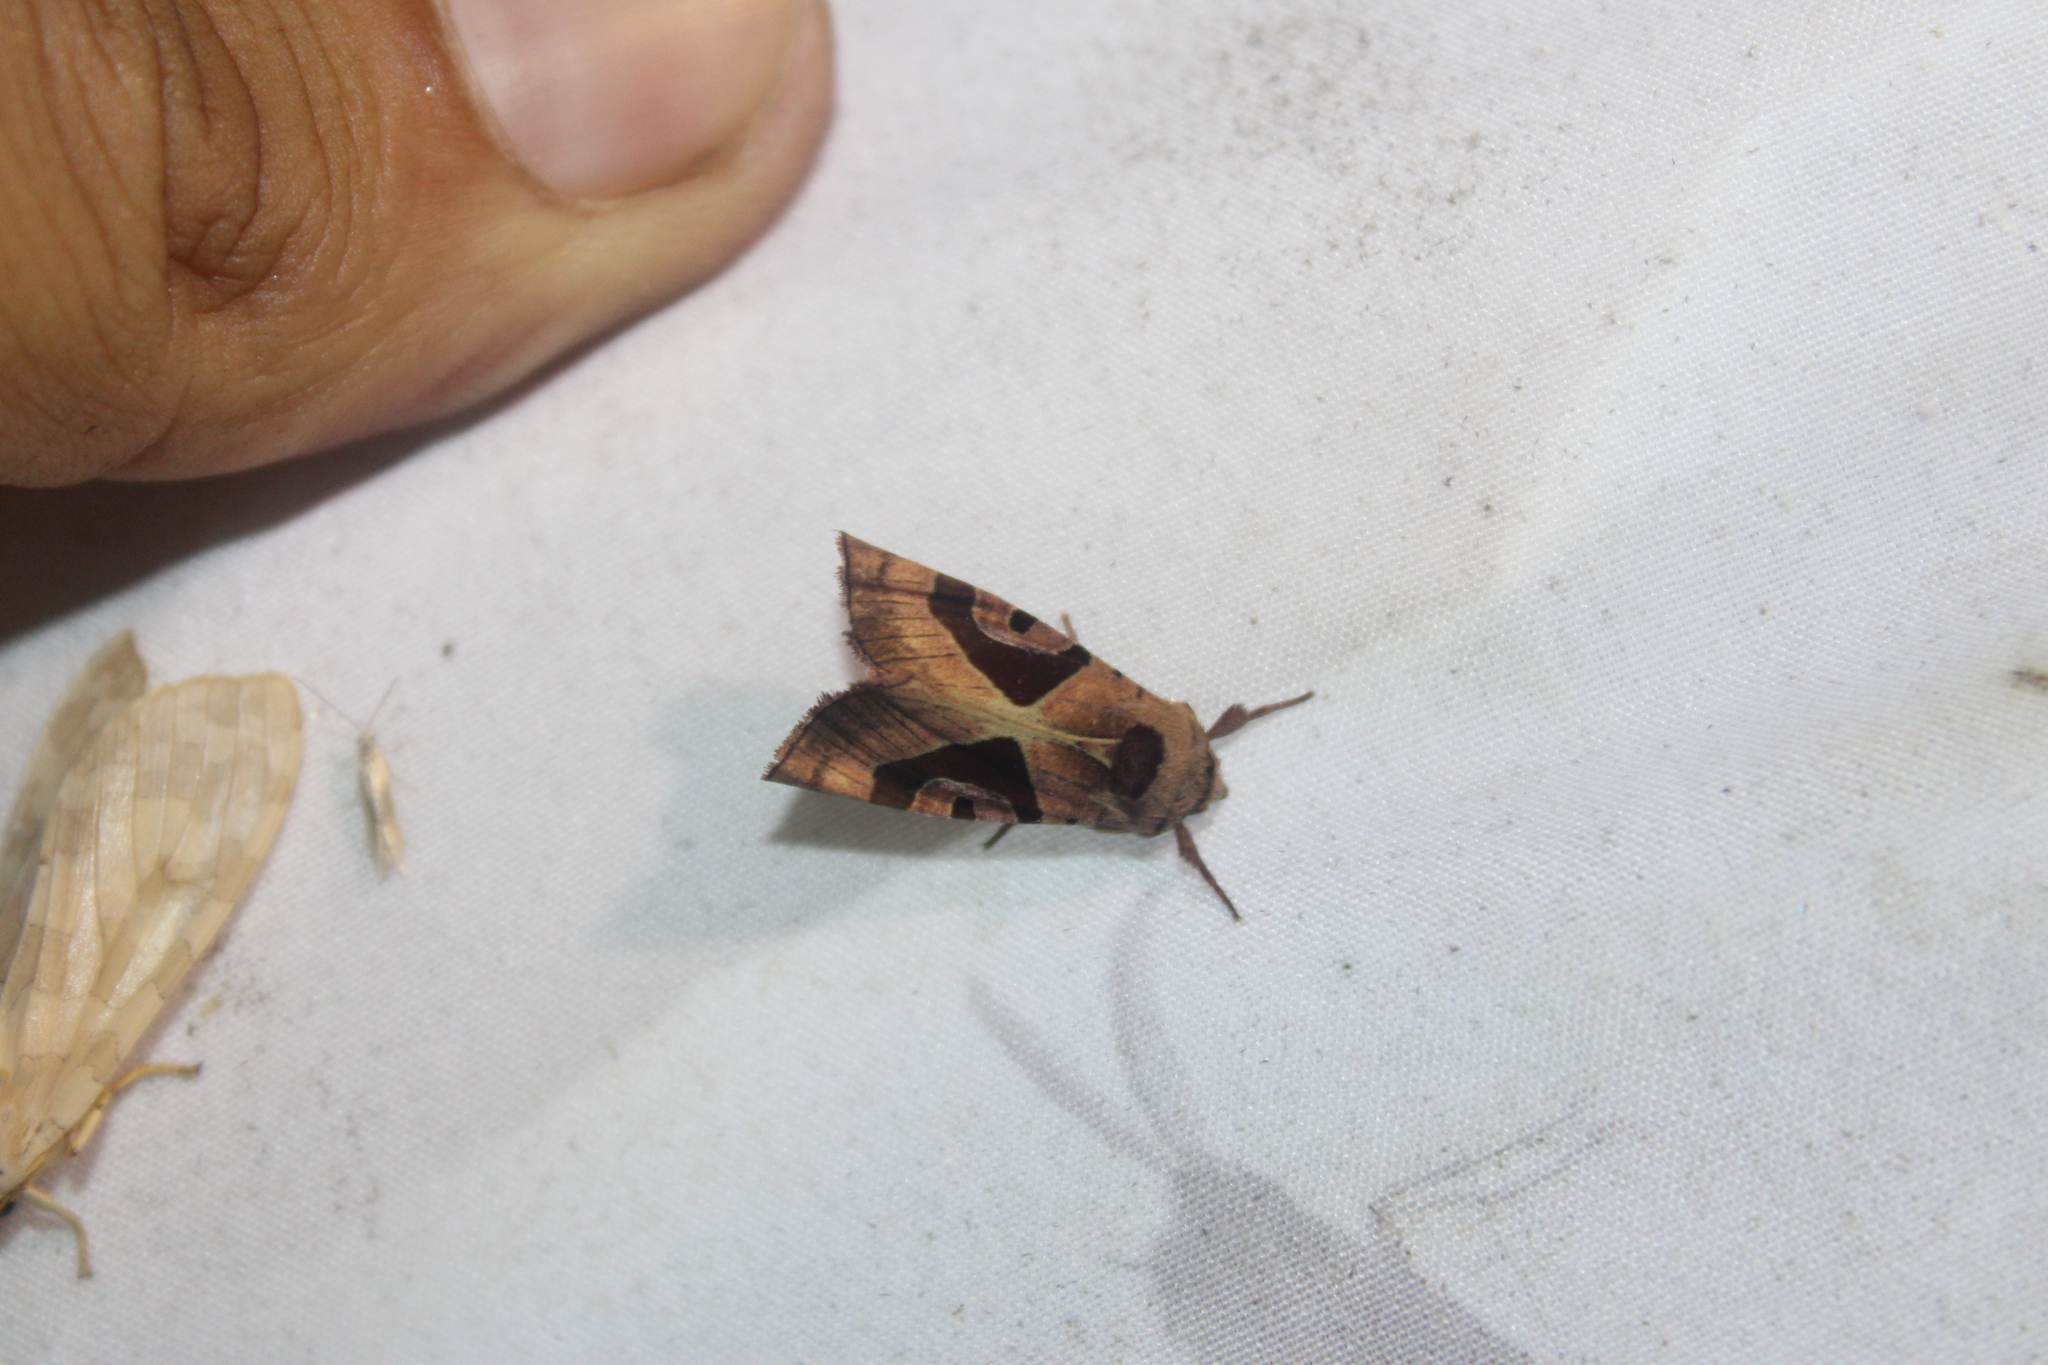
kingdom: Animalia
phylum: Arthropoda
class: Insecta
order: Lepidoptera
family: Noctuidae
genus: Conservula
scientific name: Conservula anodonta
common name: Sharp angle shades
